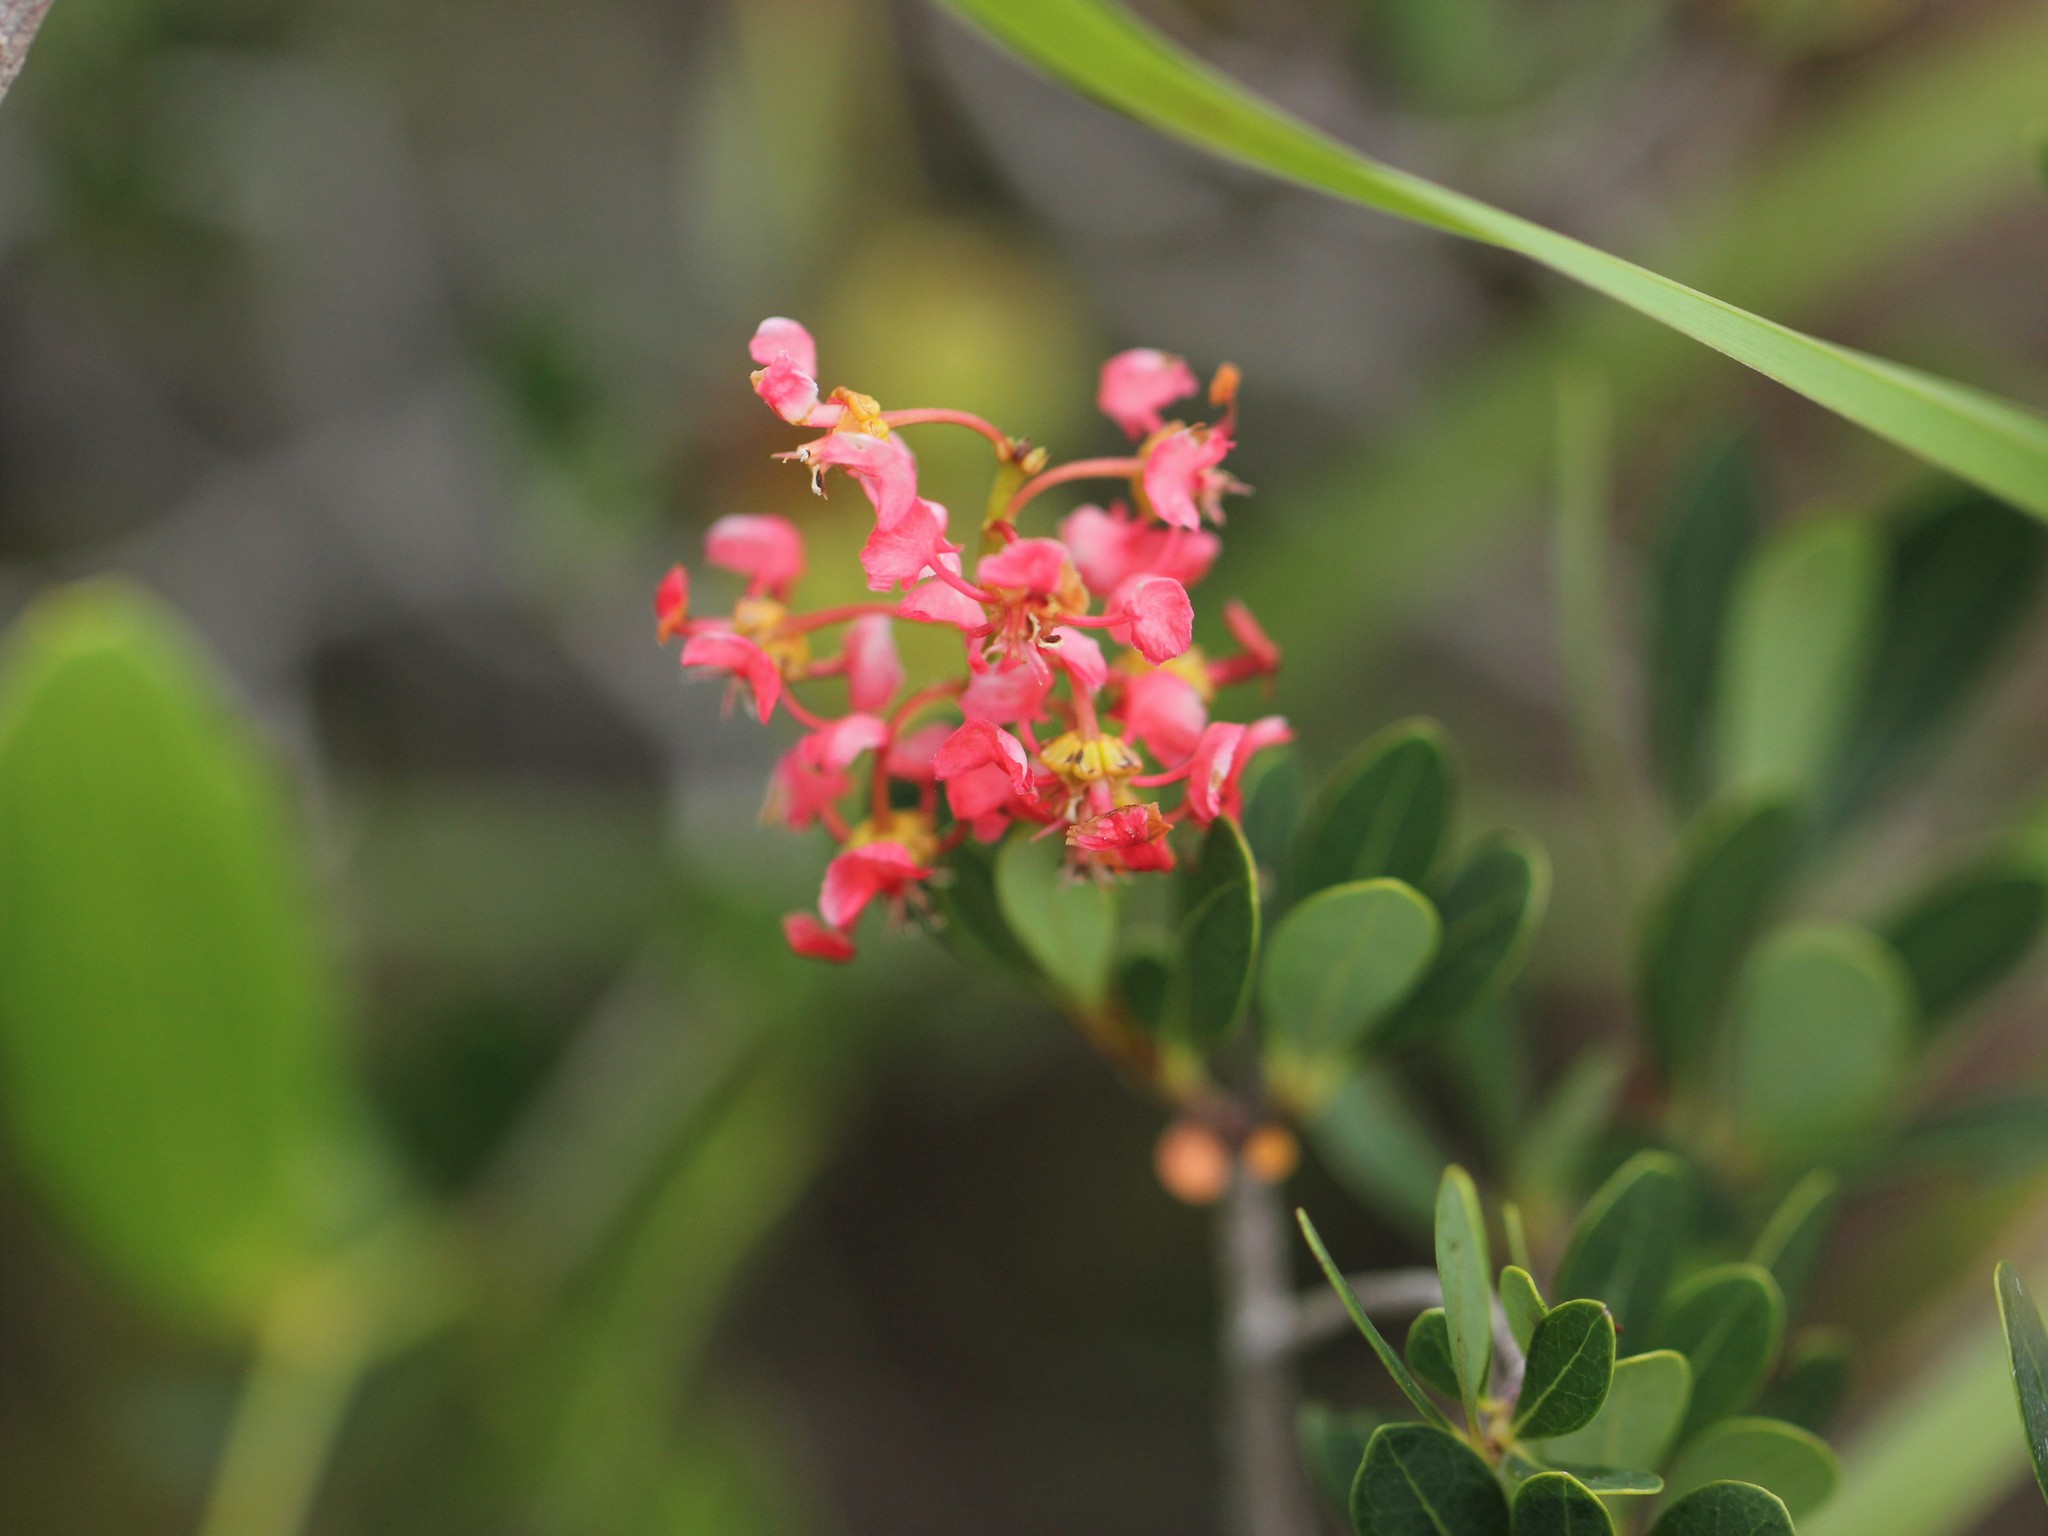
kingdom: Plantae
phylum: Tracheophyta
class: Magnoliopsida
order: Malpighiales
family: Malpighiaceae
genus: Byrsonima
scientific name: Byrsonima lucida
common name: Clam-cherry
